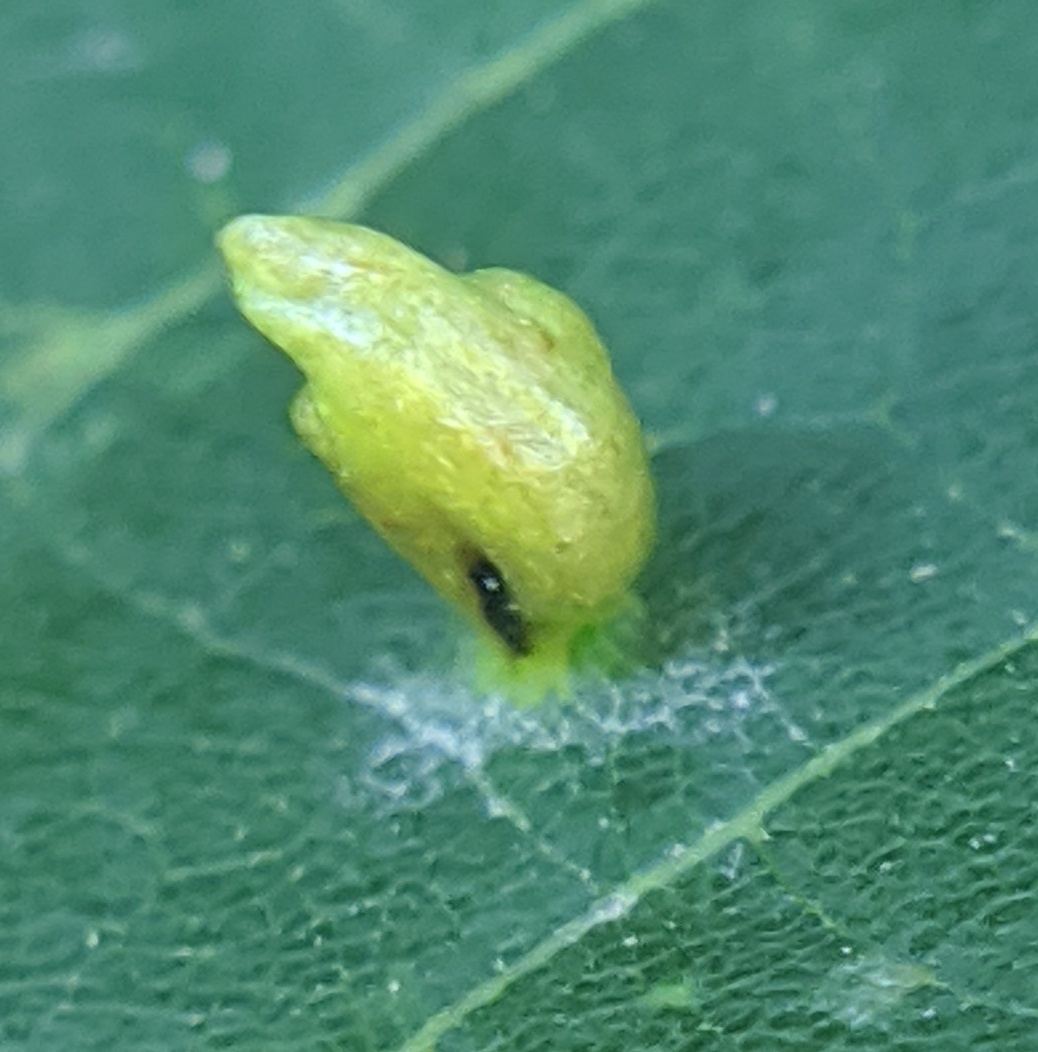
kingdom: Animalia
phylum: Arthropoda
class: Arachnida
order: Trombidiformes
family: Eriophyidae
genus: Eriophyes
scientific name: Eriophyes tiliae
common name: Red nail gall mite
